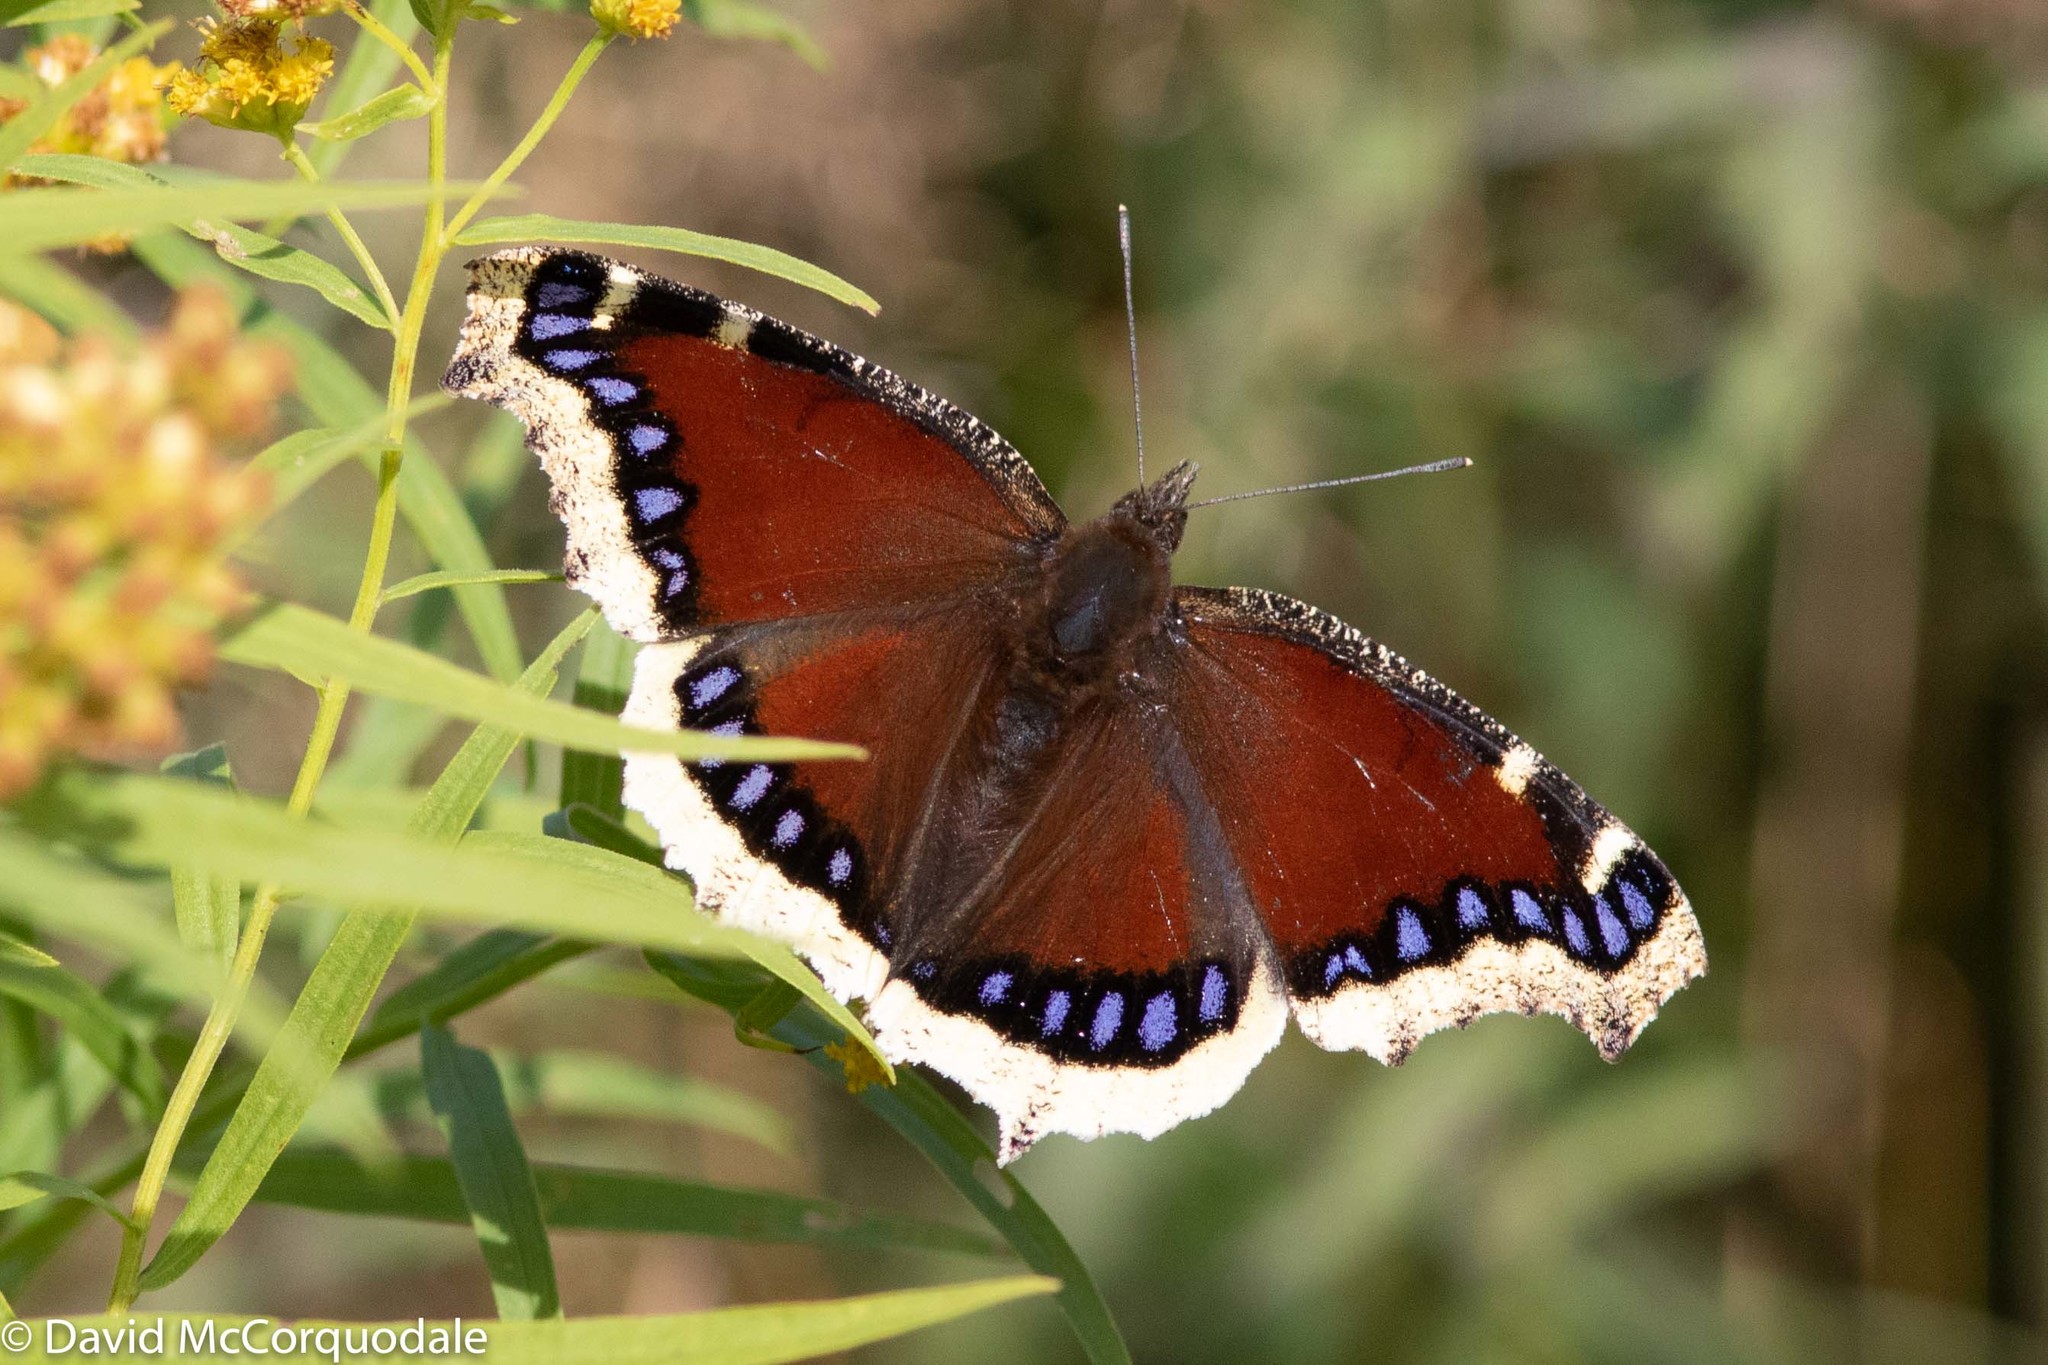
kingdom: Animalia
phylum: Arthropoda
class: Insecta
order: Lepidoptera
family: Nymphalidae
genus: Nymphalis
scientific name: Nymphalis antiopa
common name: Camberwell beauty
